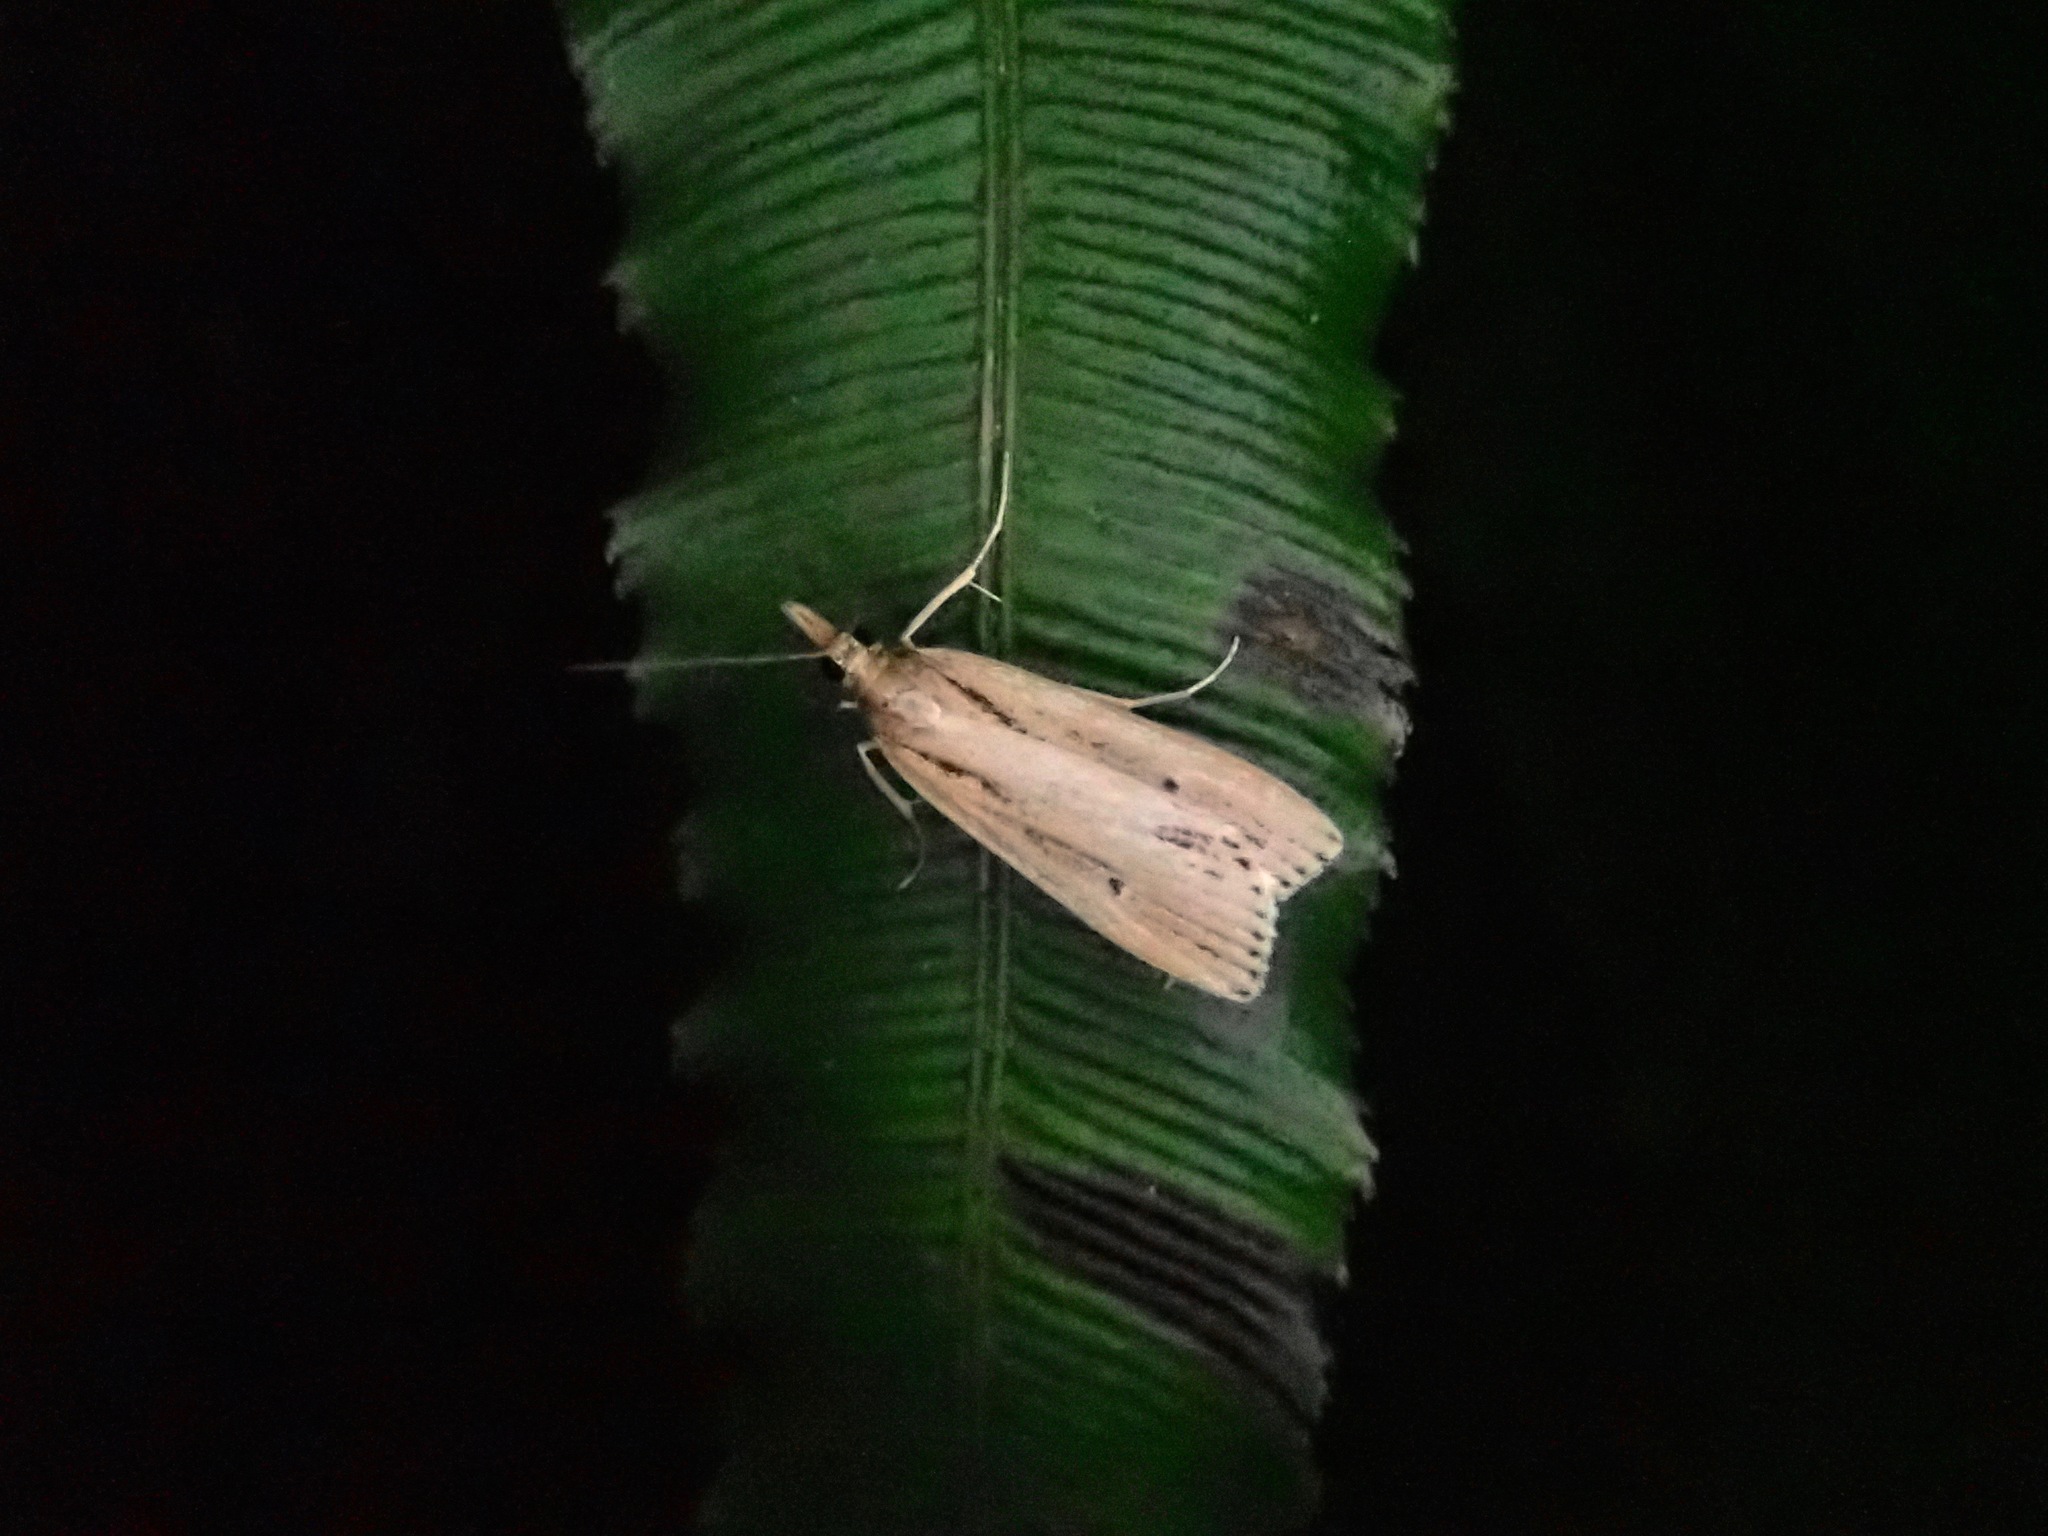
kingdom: Animalia
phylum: Arthropoda
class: Insecta
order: Lepidoptera
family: Crambidae
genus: Eudonia
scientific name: Eudonia sabulosella
